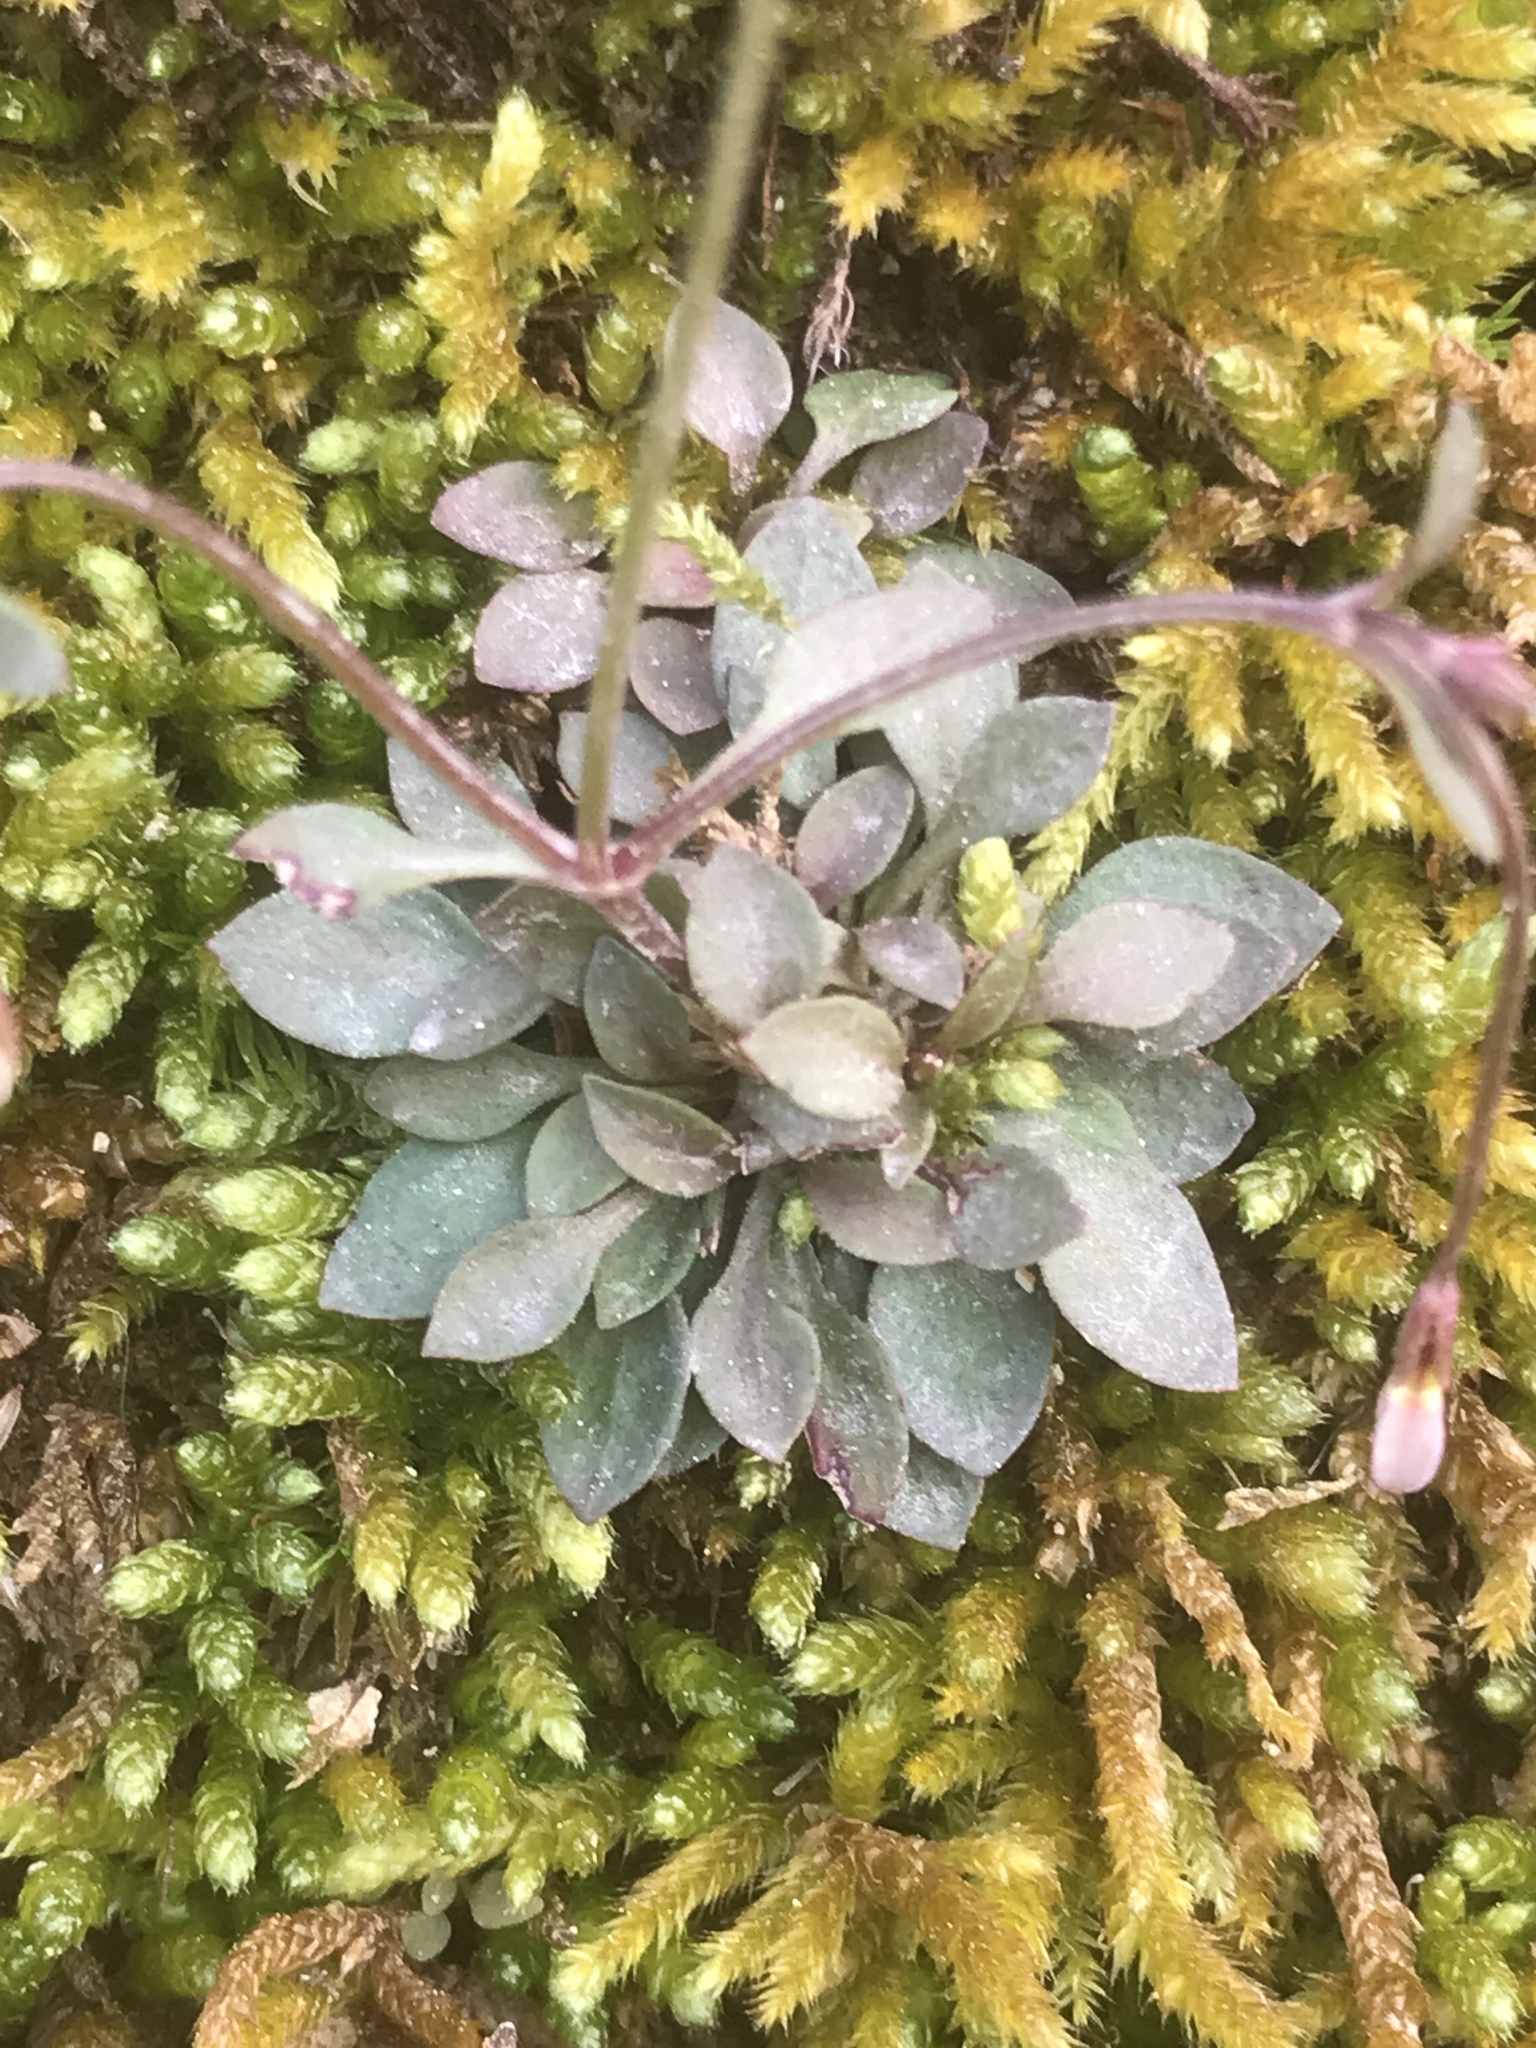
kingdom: Plantae
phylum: Tracheophyta
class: Magnoliopsida
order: Gentianales
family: Rubiaceae
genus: Houstonia
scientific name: Houstonia caerulea
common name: Bluets
